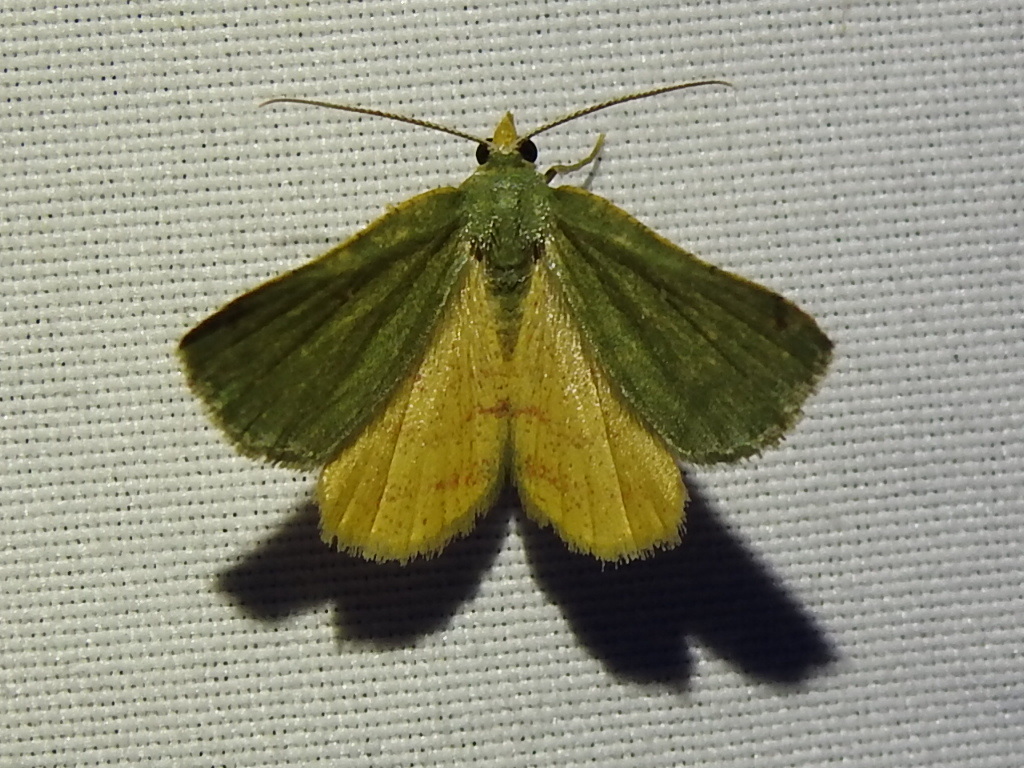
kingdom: Animalia
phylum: Arthropoda
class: Insecta
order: Lepidoptera
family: Geometridae
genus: Chloraspilates
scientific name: Chloraspilates bicoloraria
